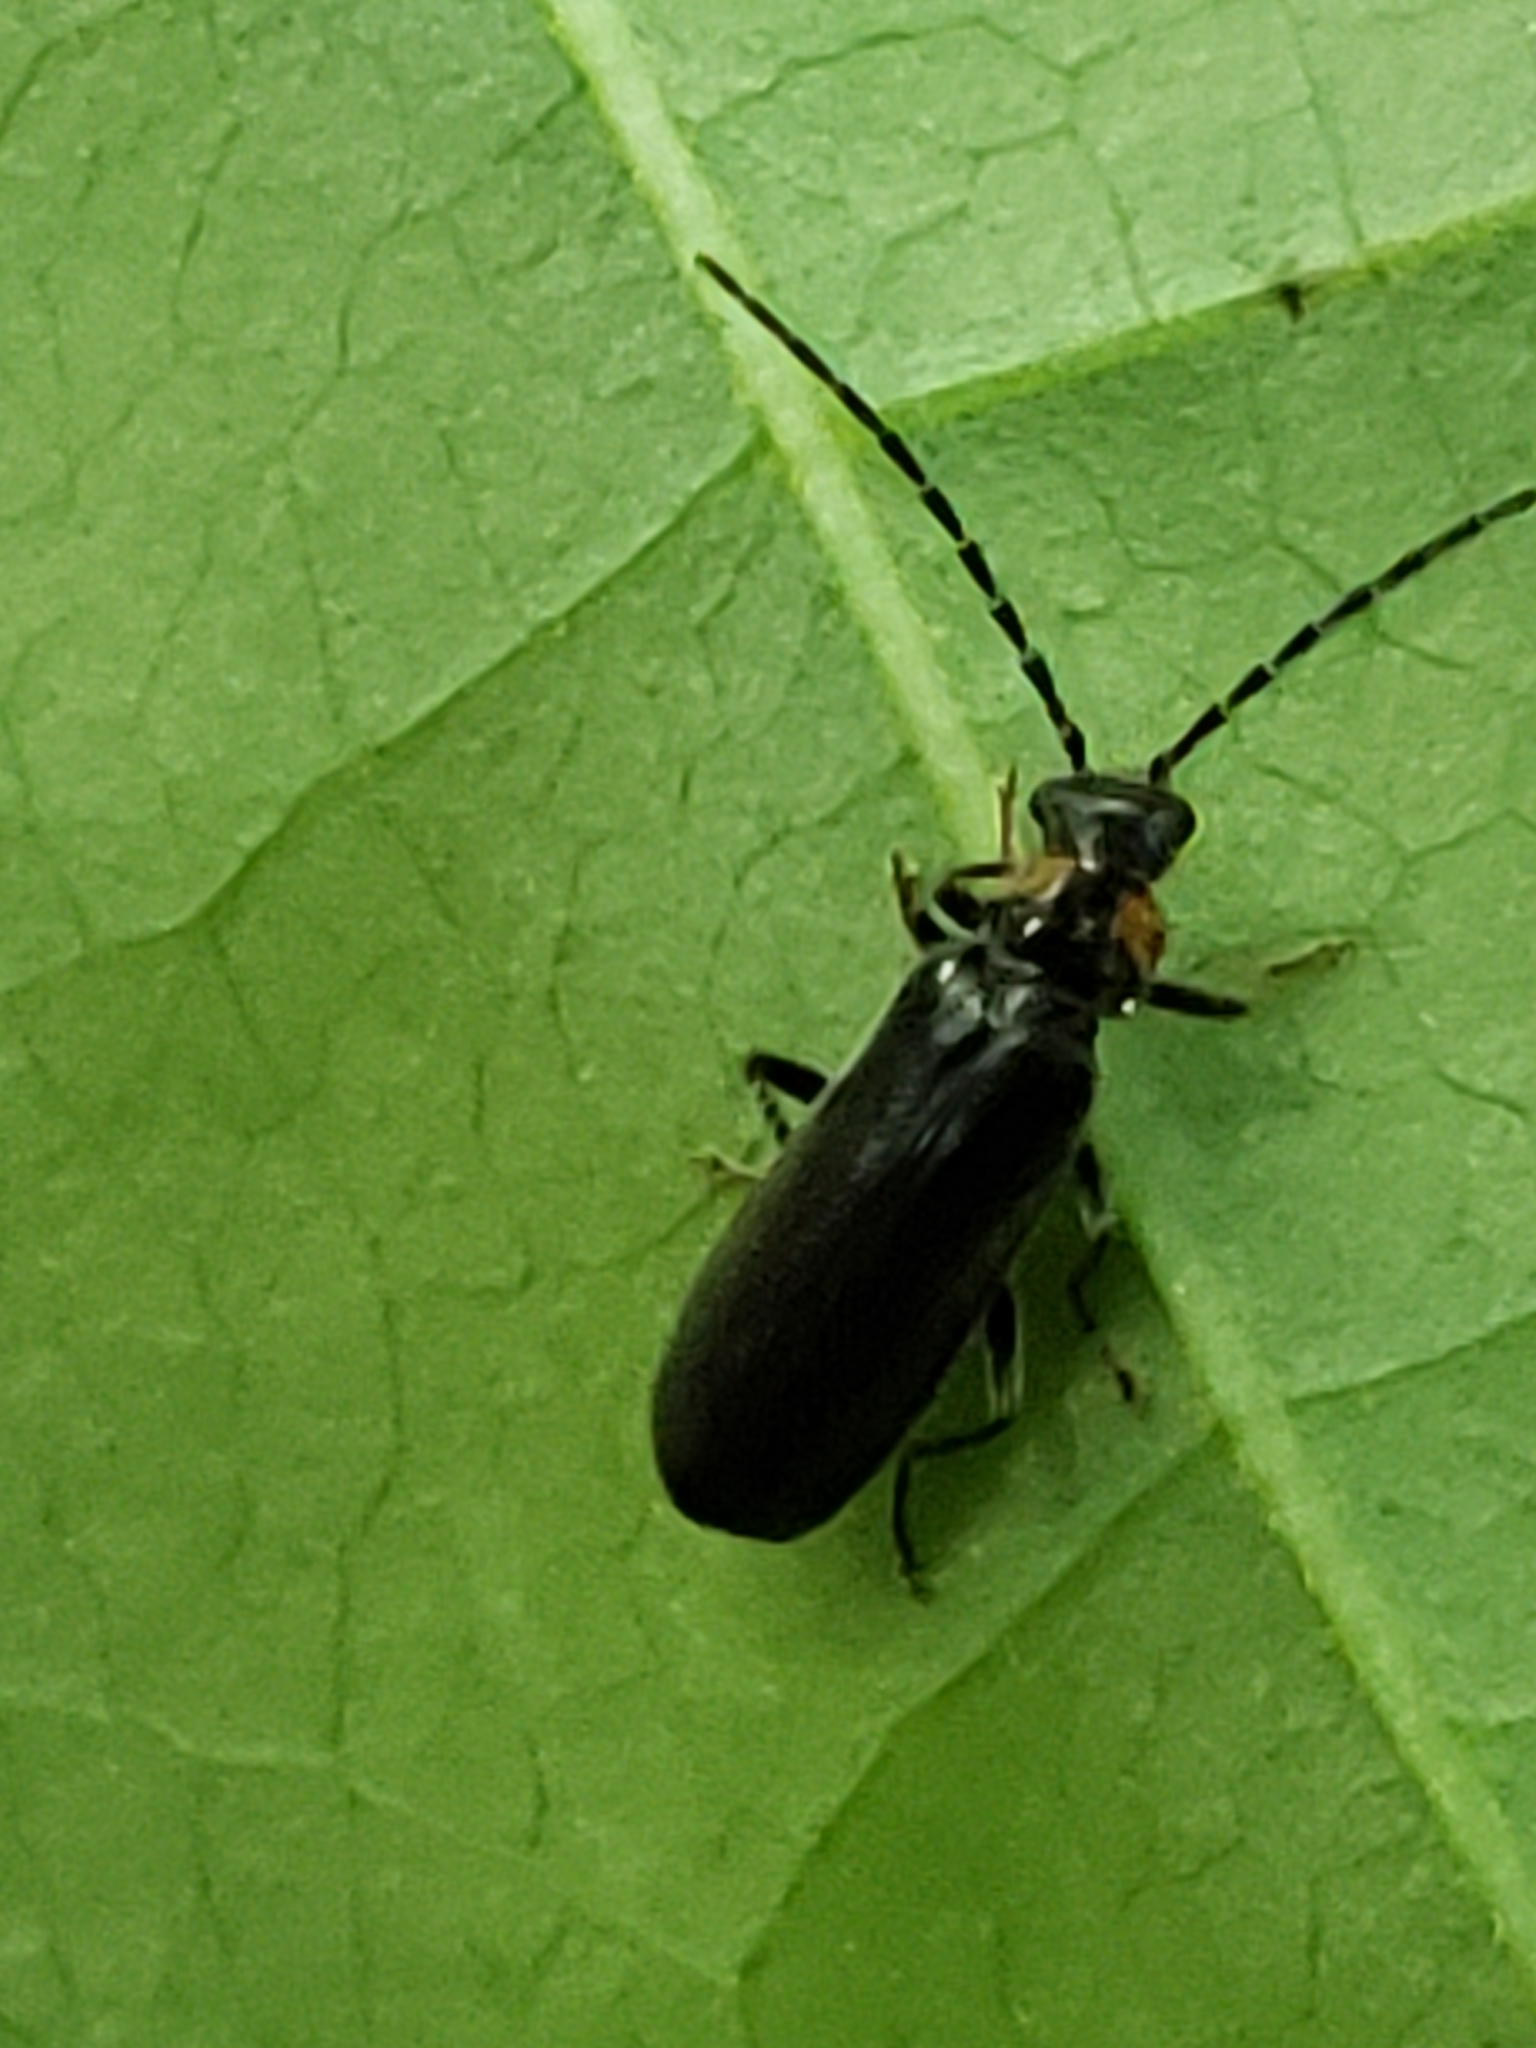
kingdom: Animalia
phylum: Arthropoda
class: Insecta
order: Coleoptera
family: Cantharidae
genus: Rhagonycha
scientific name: Rhagonycha angulata
